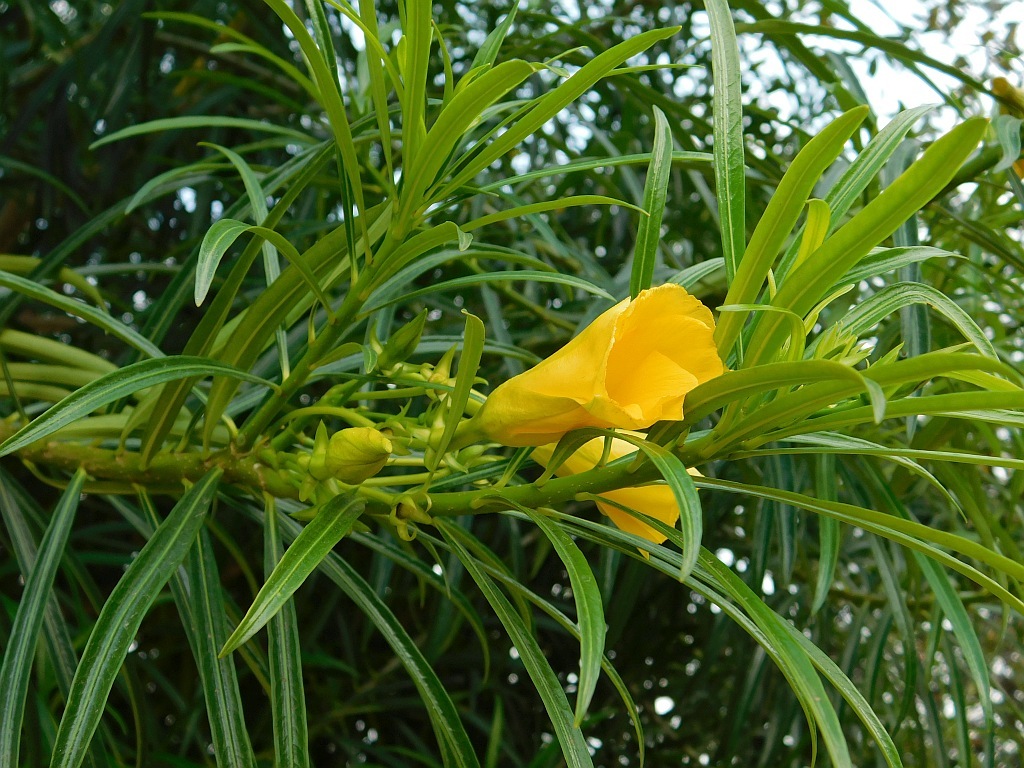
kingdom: Plantae
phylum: Tracheophyta
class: Magnoliopsida
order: Gentianales
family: Apocynaceae
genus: Cascabela
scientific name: Cascabela thevetia
